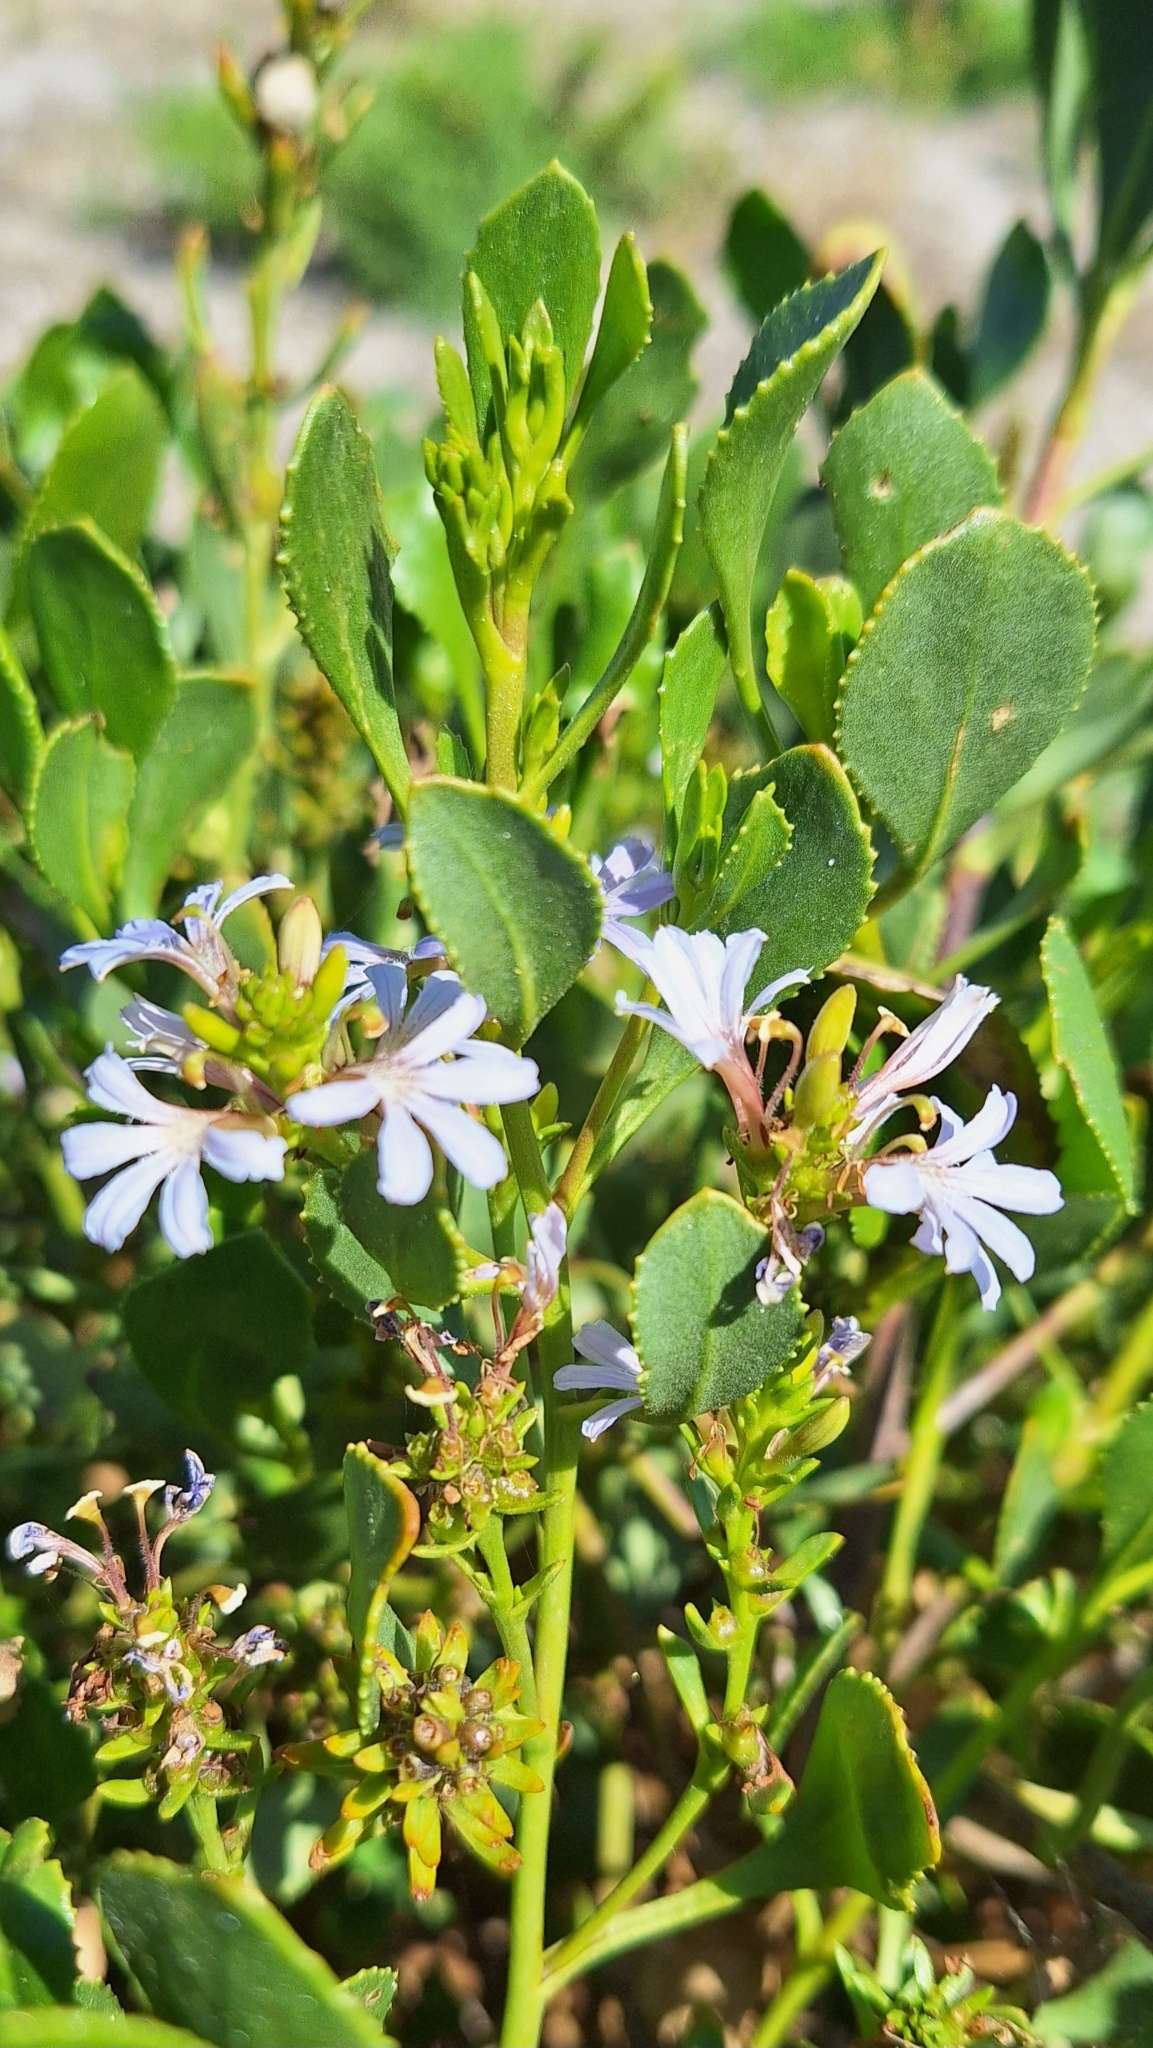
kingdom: Plantae
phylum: Tracheophyta
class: Magnoliopsida
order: Asterales
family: Goodeniaceae
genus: Scaevola
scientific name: Scaevola crassifolia
